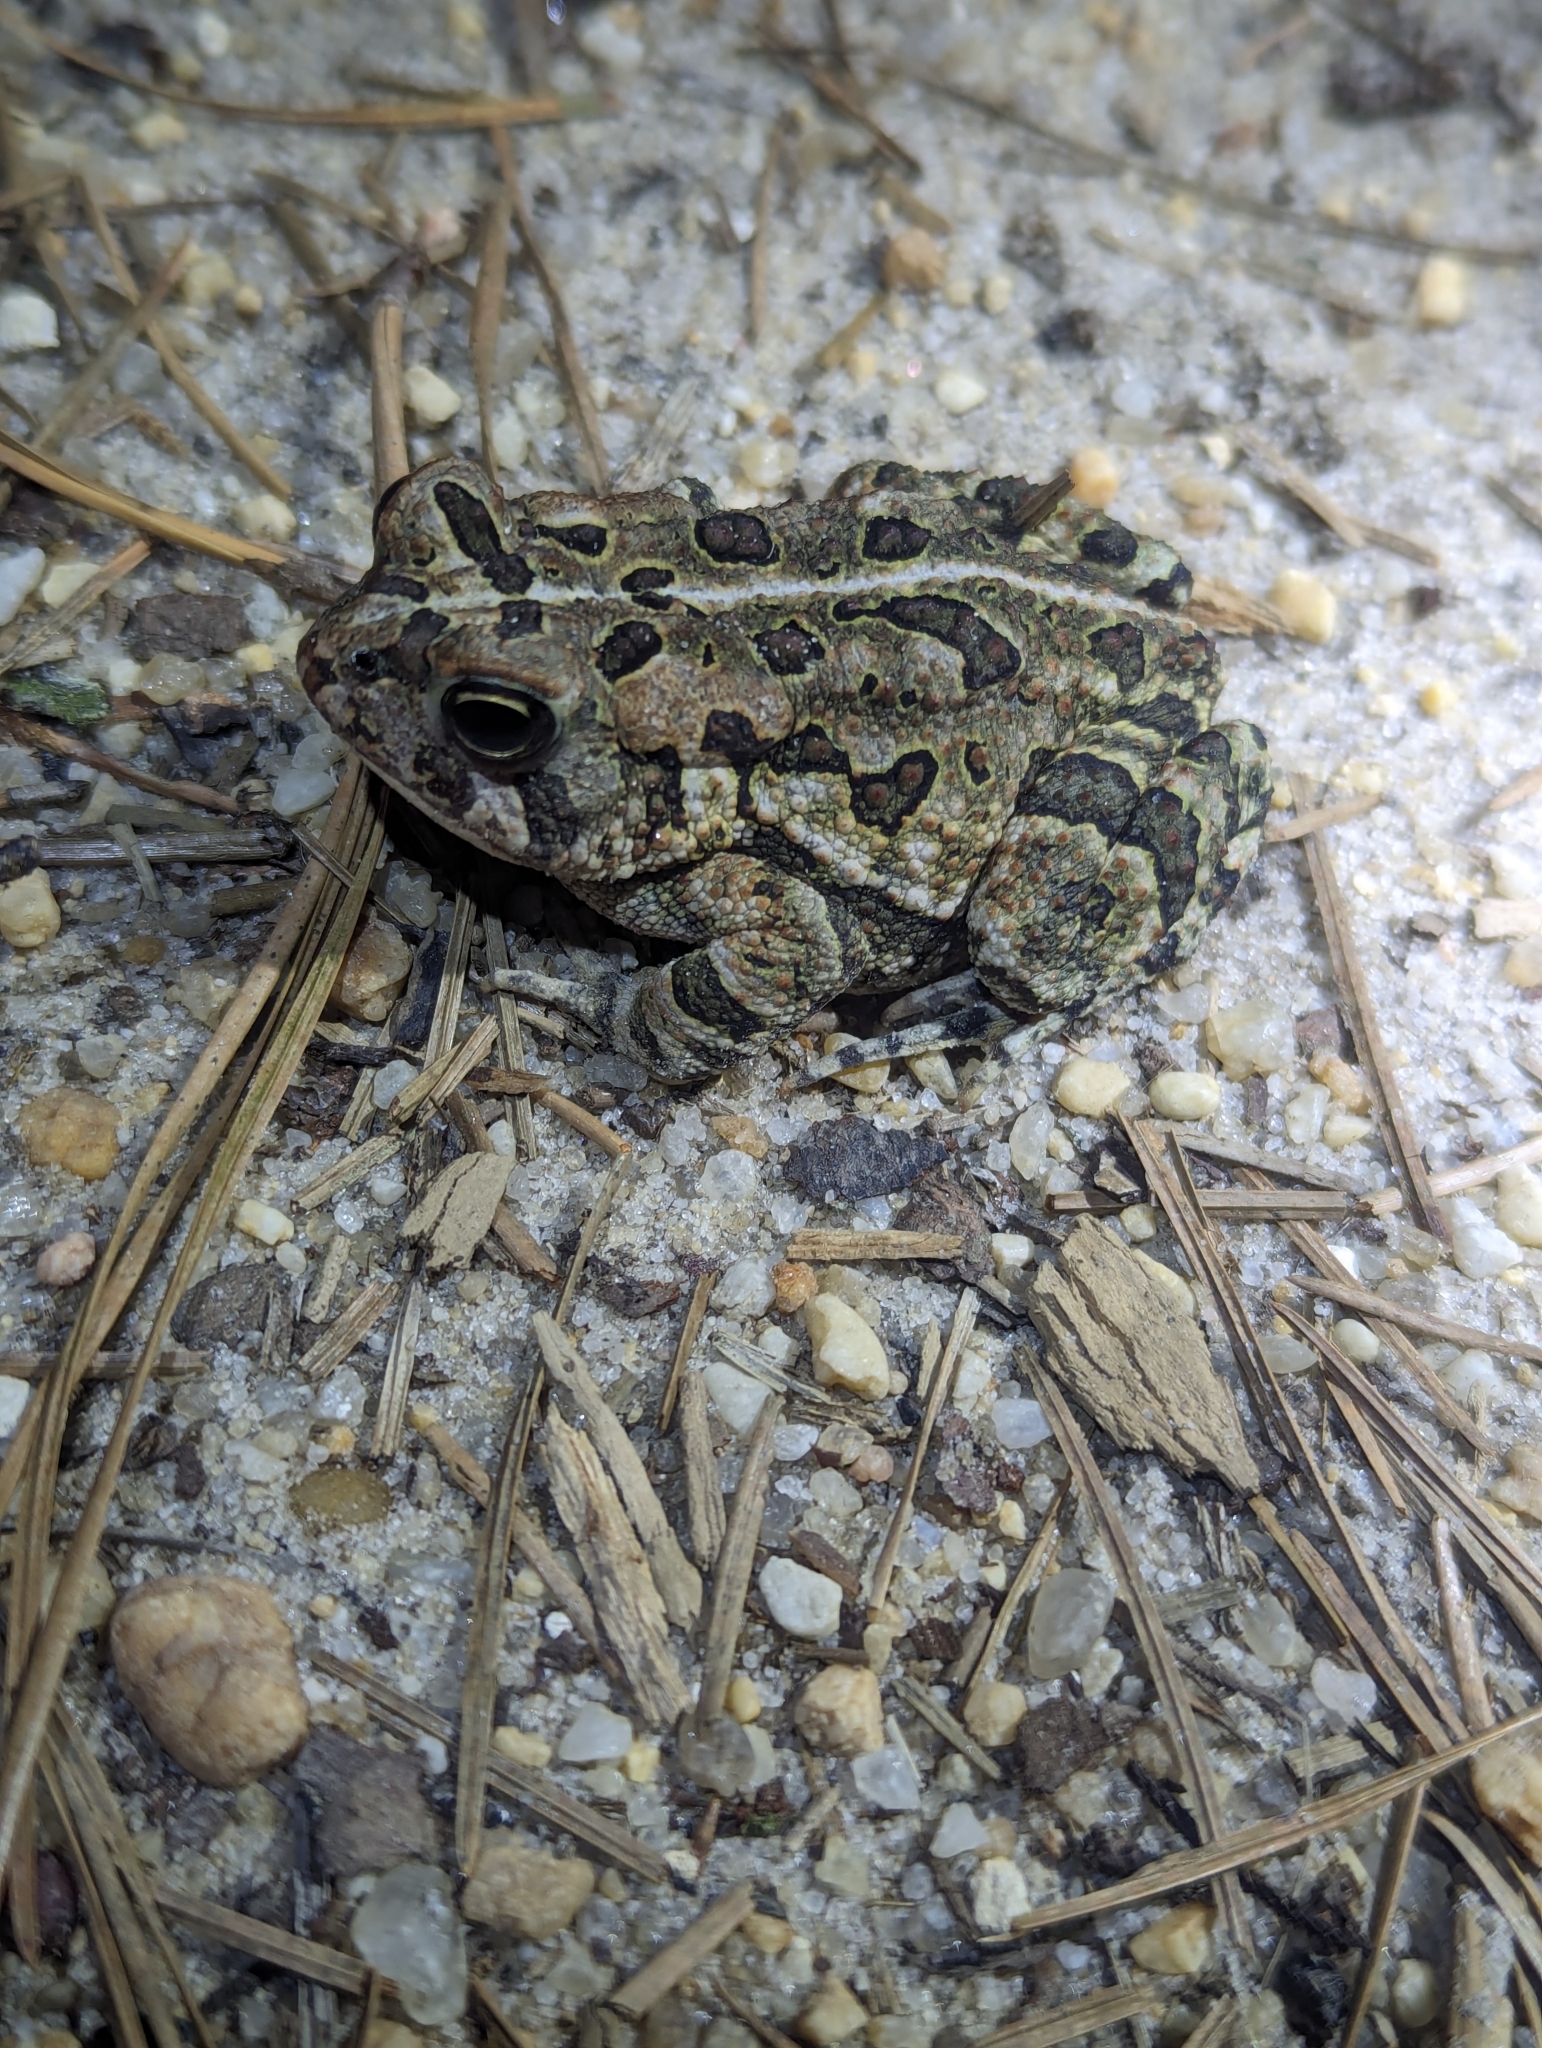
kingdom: Animalia
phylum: Chordata
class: Amphibia
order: Anura
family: Bufonidae
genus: Anaxyrus
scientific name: Anaxyrus fowleri
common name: Fowler's toad
